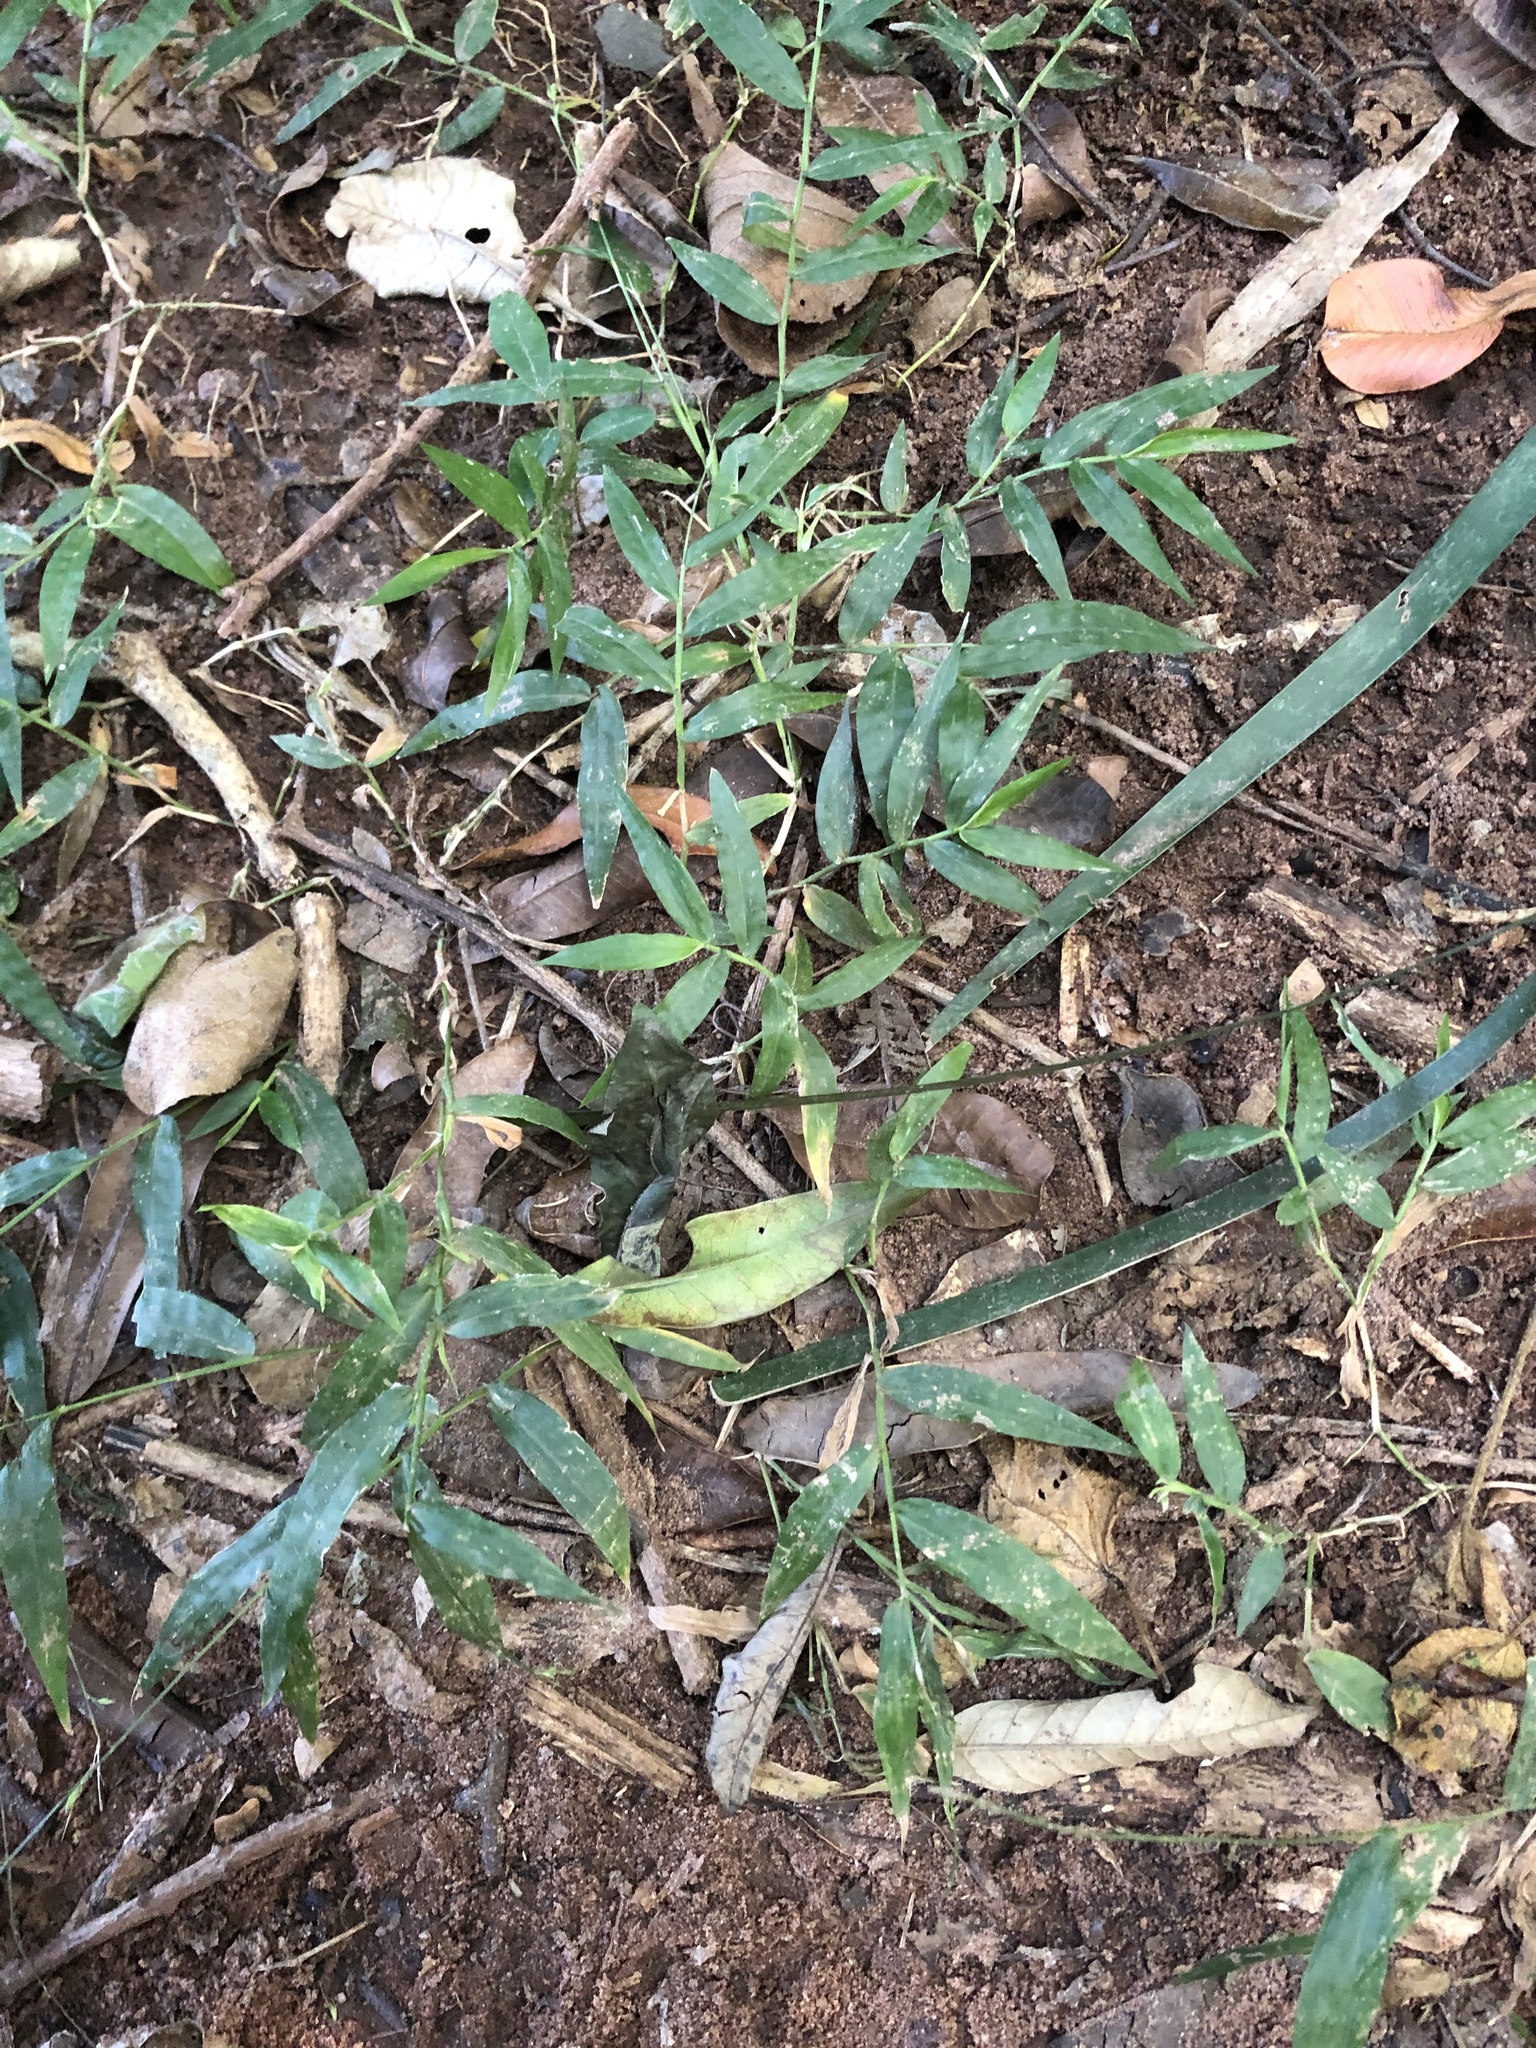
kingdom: Plantae
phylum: Tracheophyta
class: Liliopsida
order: Poales
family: Poaceae
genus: Oplismenus
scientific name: Oplismenus hirtellus
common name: Basketgrass
